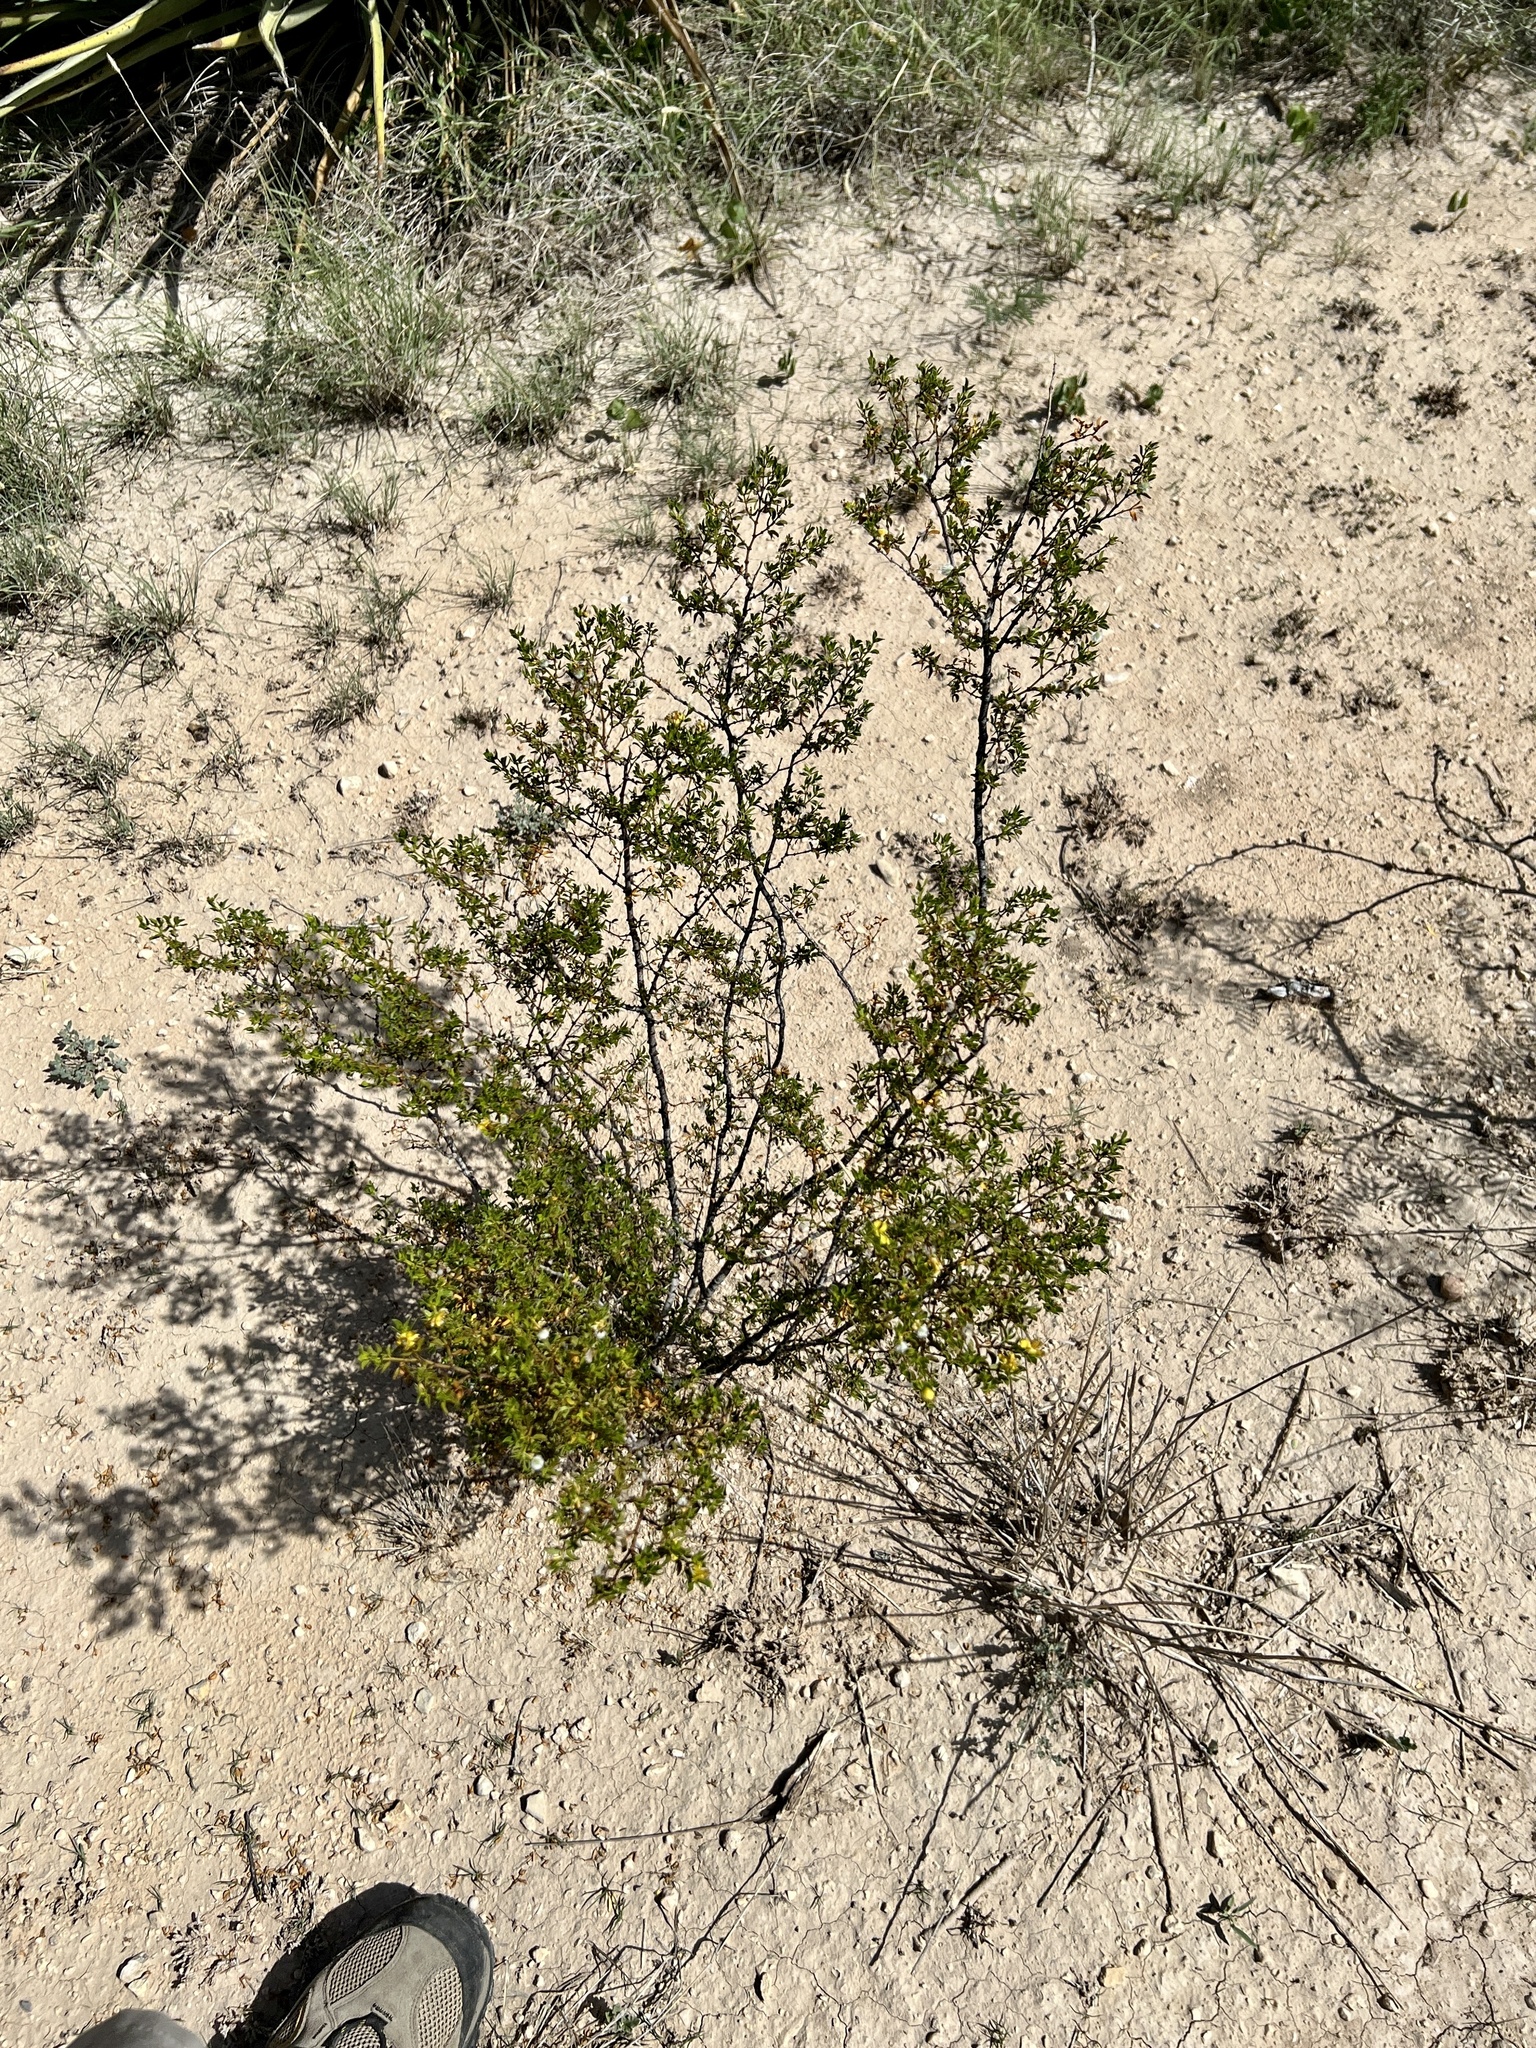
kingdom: Plantae
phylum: Tracheophyta
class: Magnoliopsida
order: Zygophyllales
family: Zygophyllaceae
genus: Larrea
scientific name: Larrea tridentata
